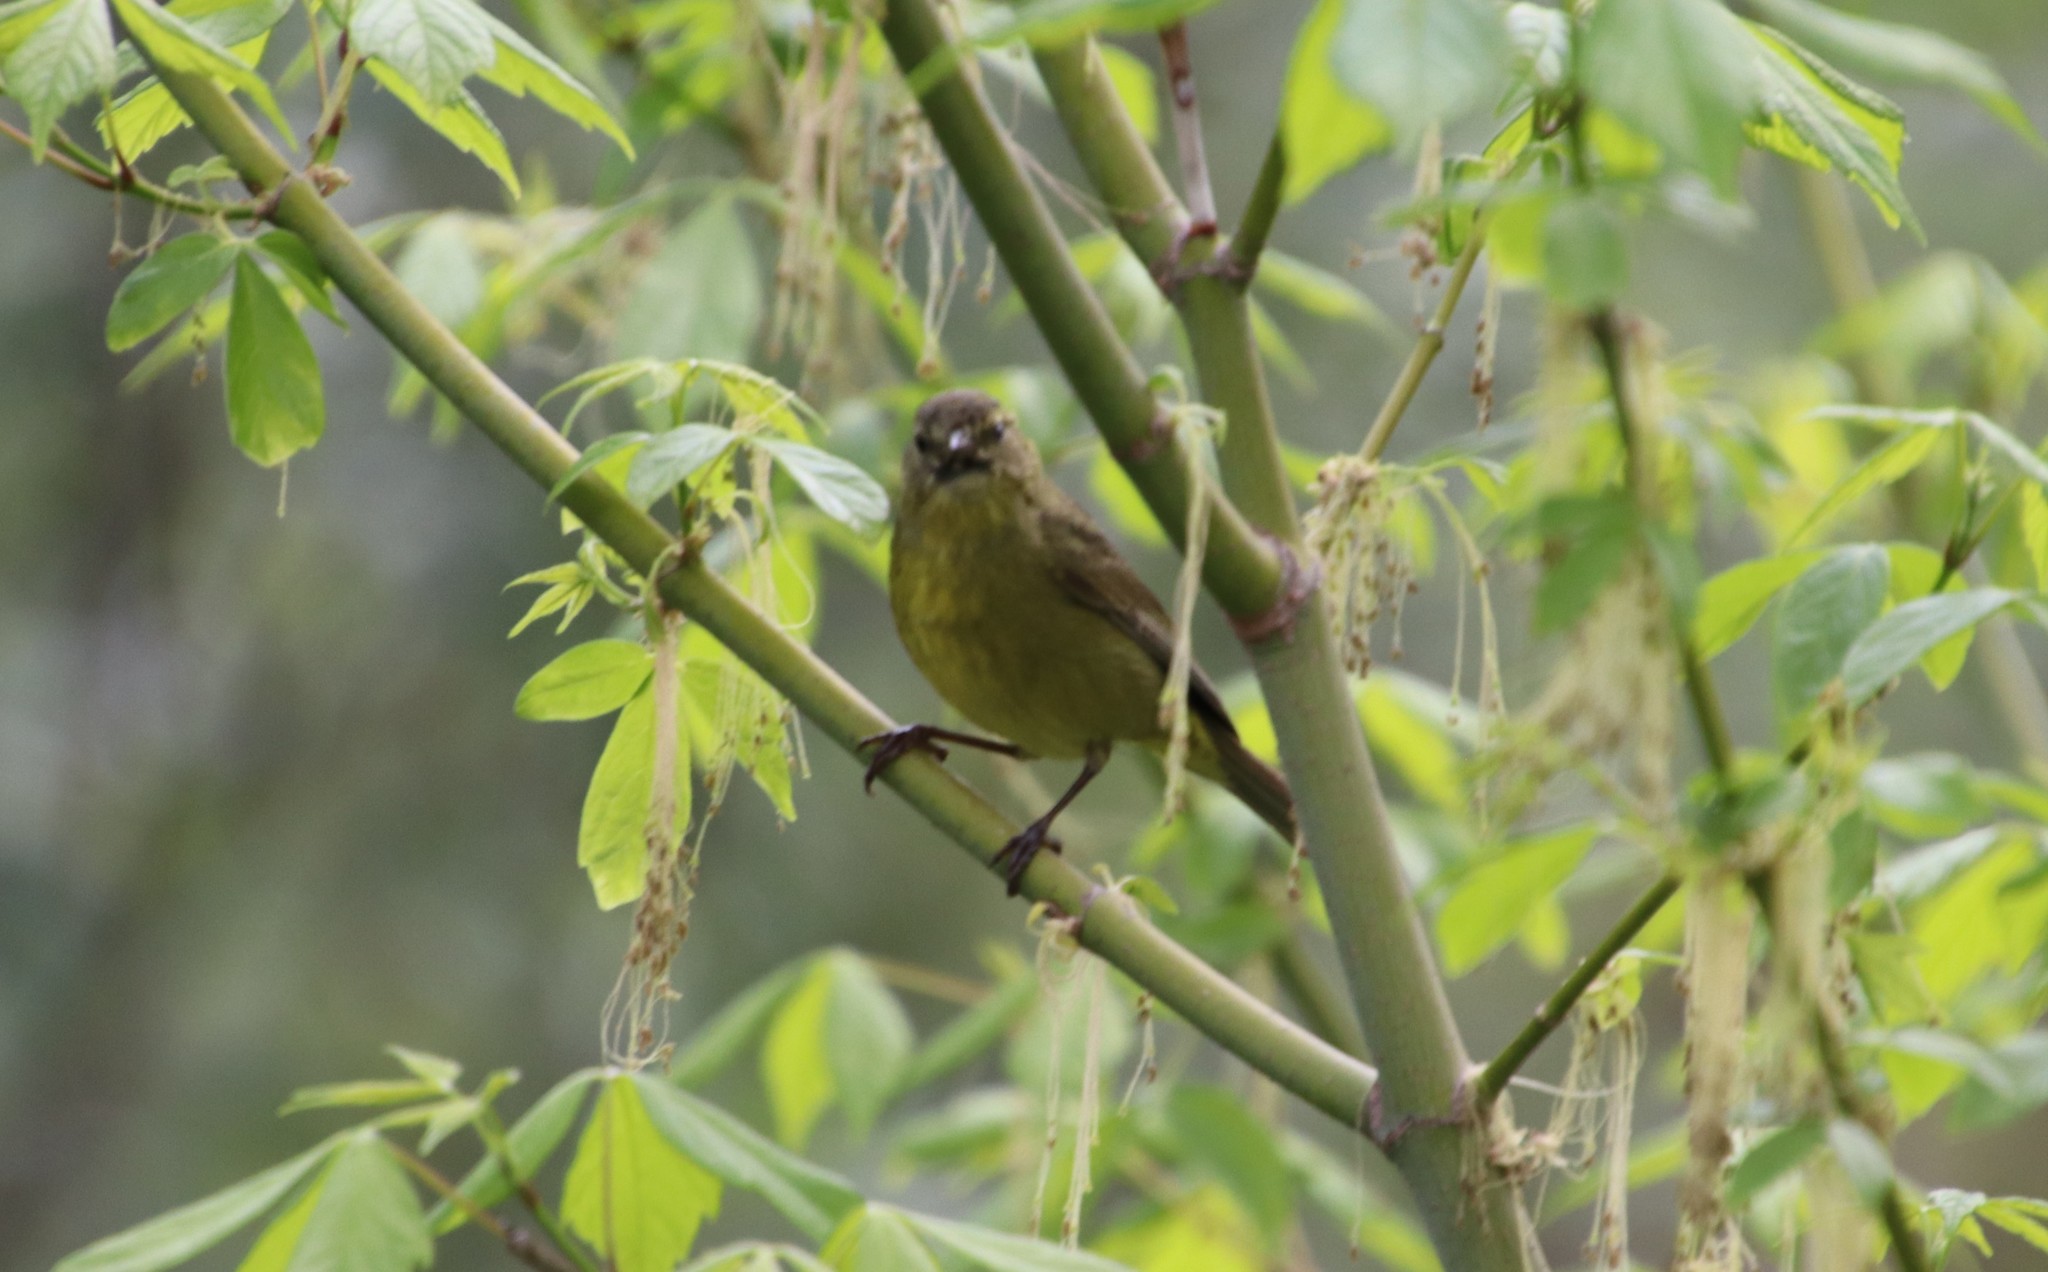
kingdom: Animalia
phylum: Chordata
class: Aves
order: Passeriformes
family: Parulidae
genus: Leiothlypis
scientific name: Leiothlypis celata
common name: Orange-crowned warbler
